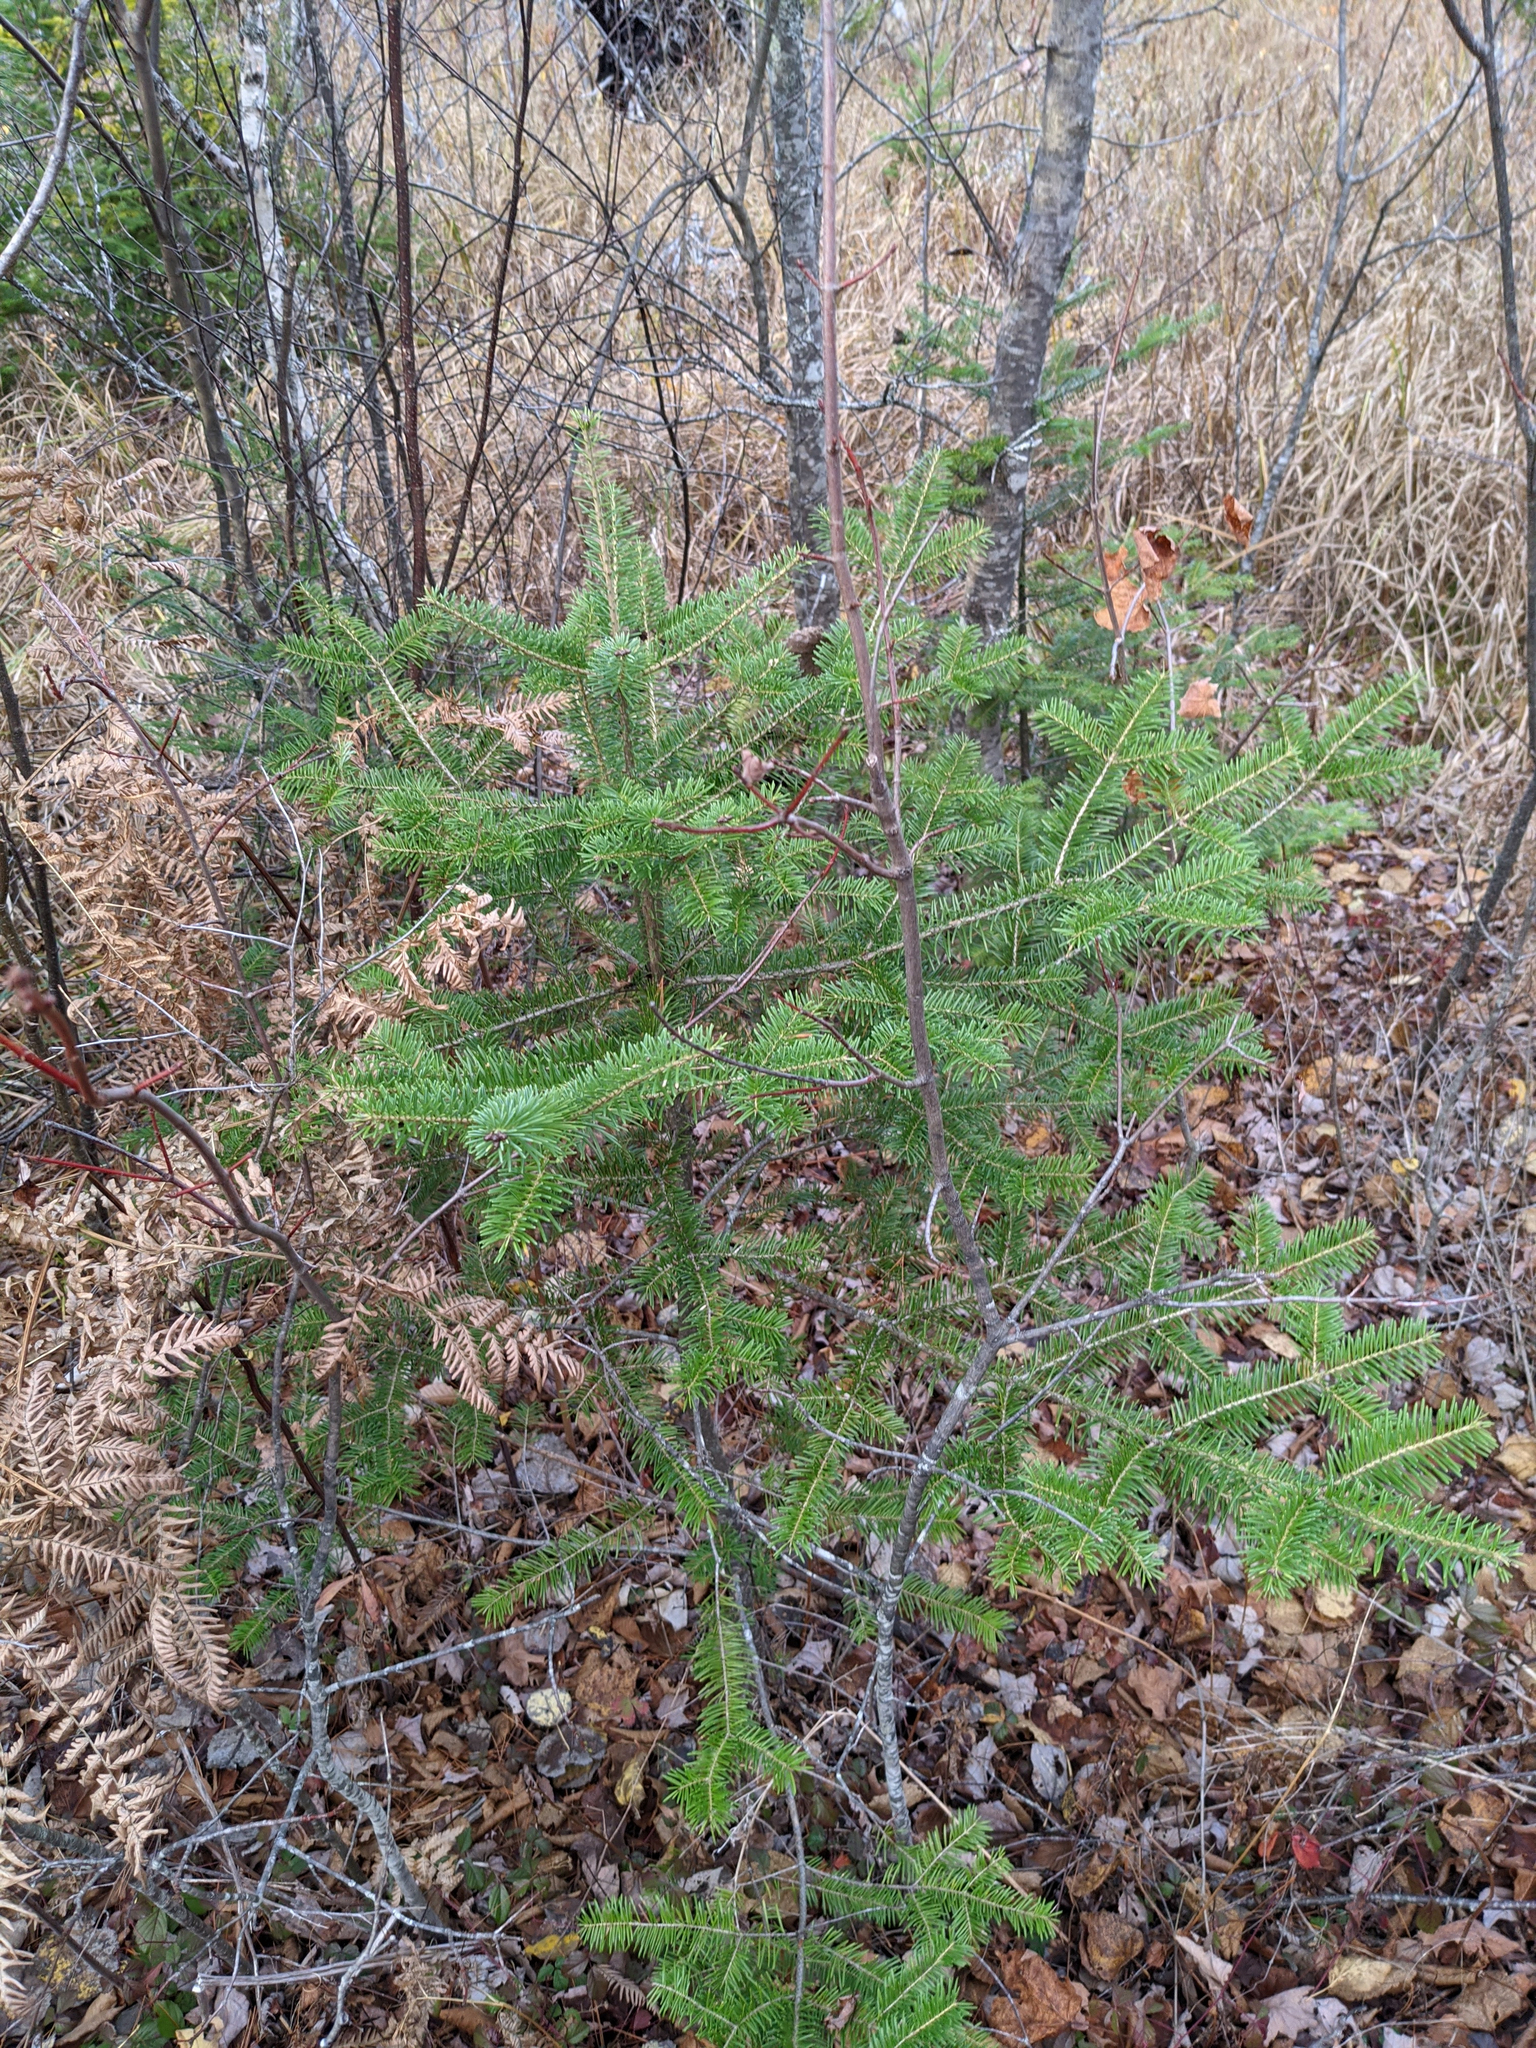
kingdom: Plantae
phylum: Tracheophyta
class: Pinopsida
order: Pinales
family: Pinaceae
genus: Abies
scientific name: Abies balsamea
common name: Balsam fir
